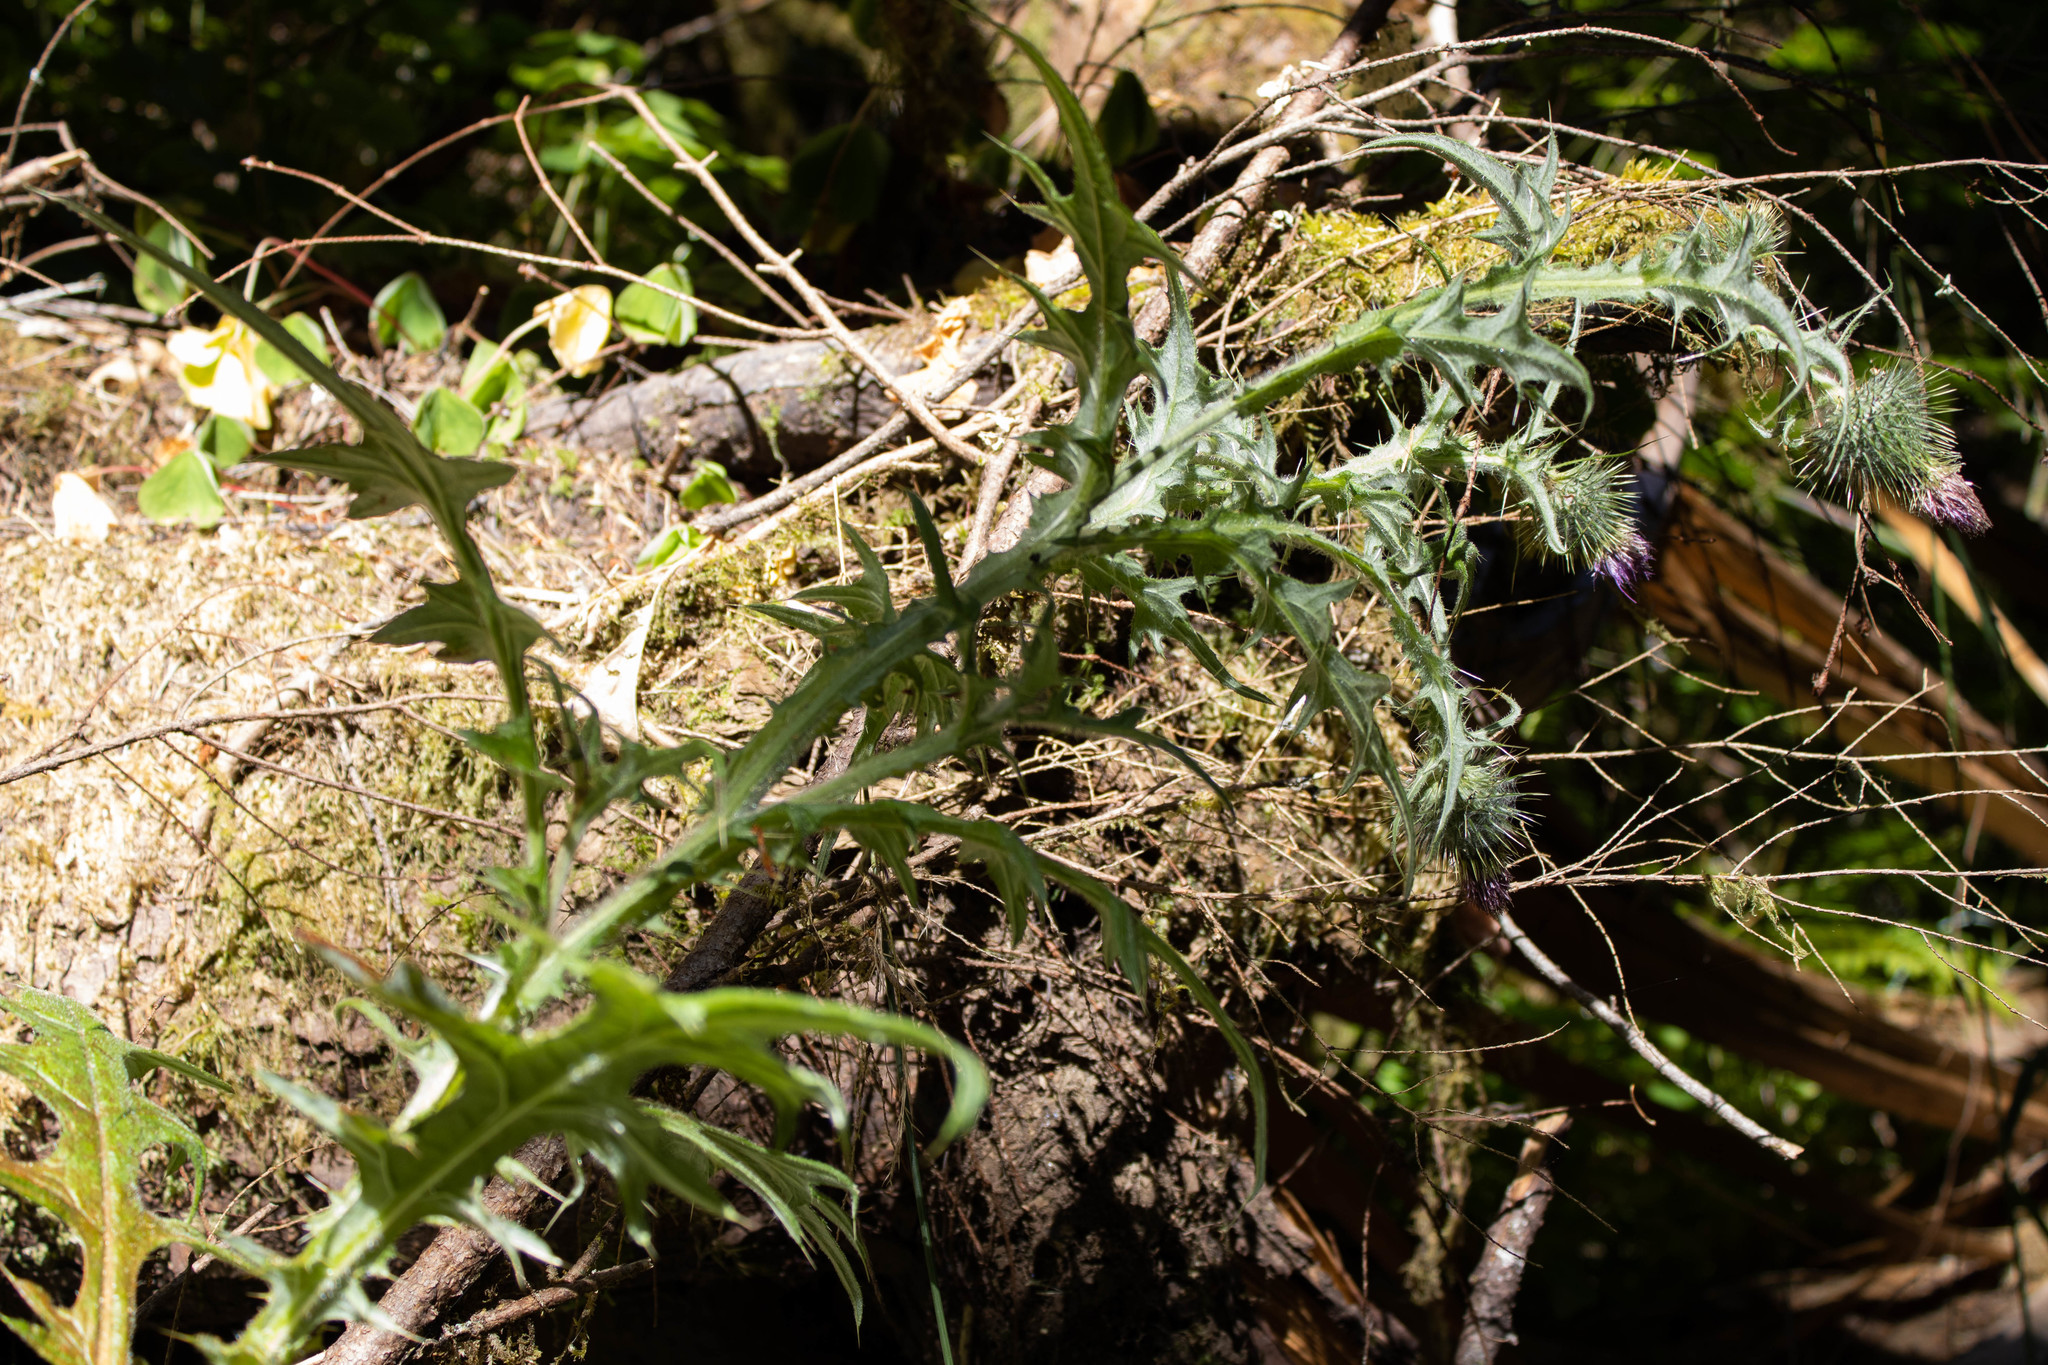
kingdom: Plantae
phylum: Tracheophyta
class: Magnoliopsida
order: Asterales
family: Asteraceae
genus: Cirsium
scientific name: Cirsium vulgare
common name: Bull thistle
